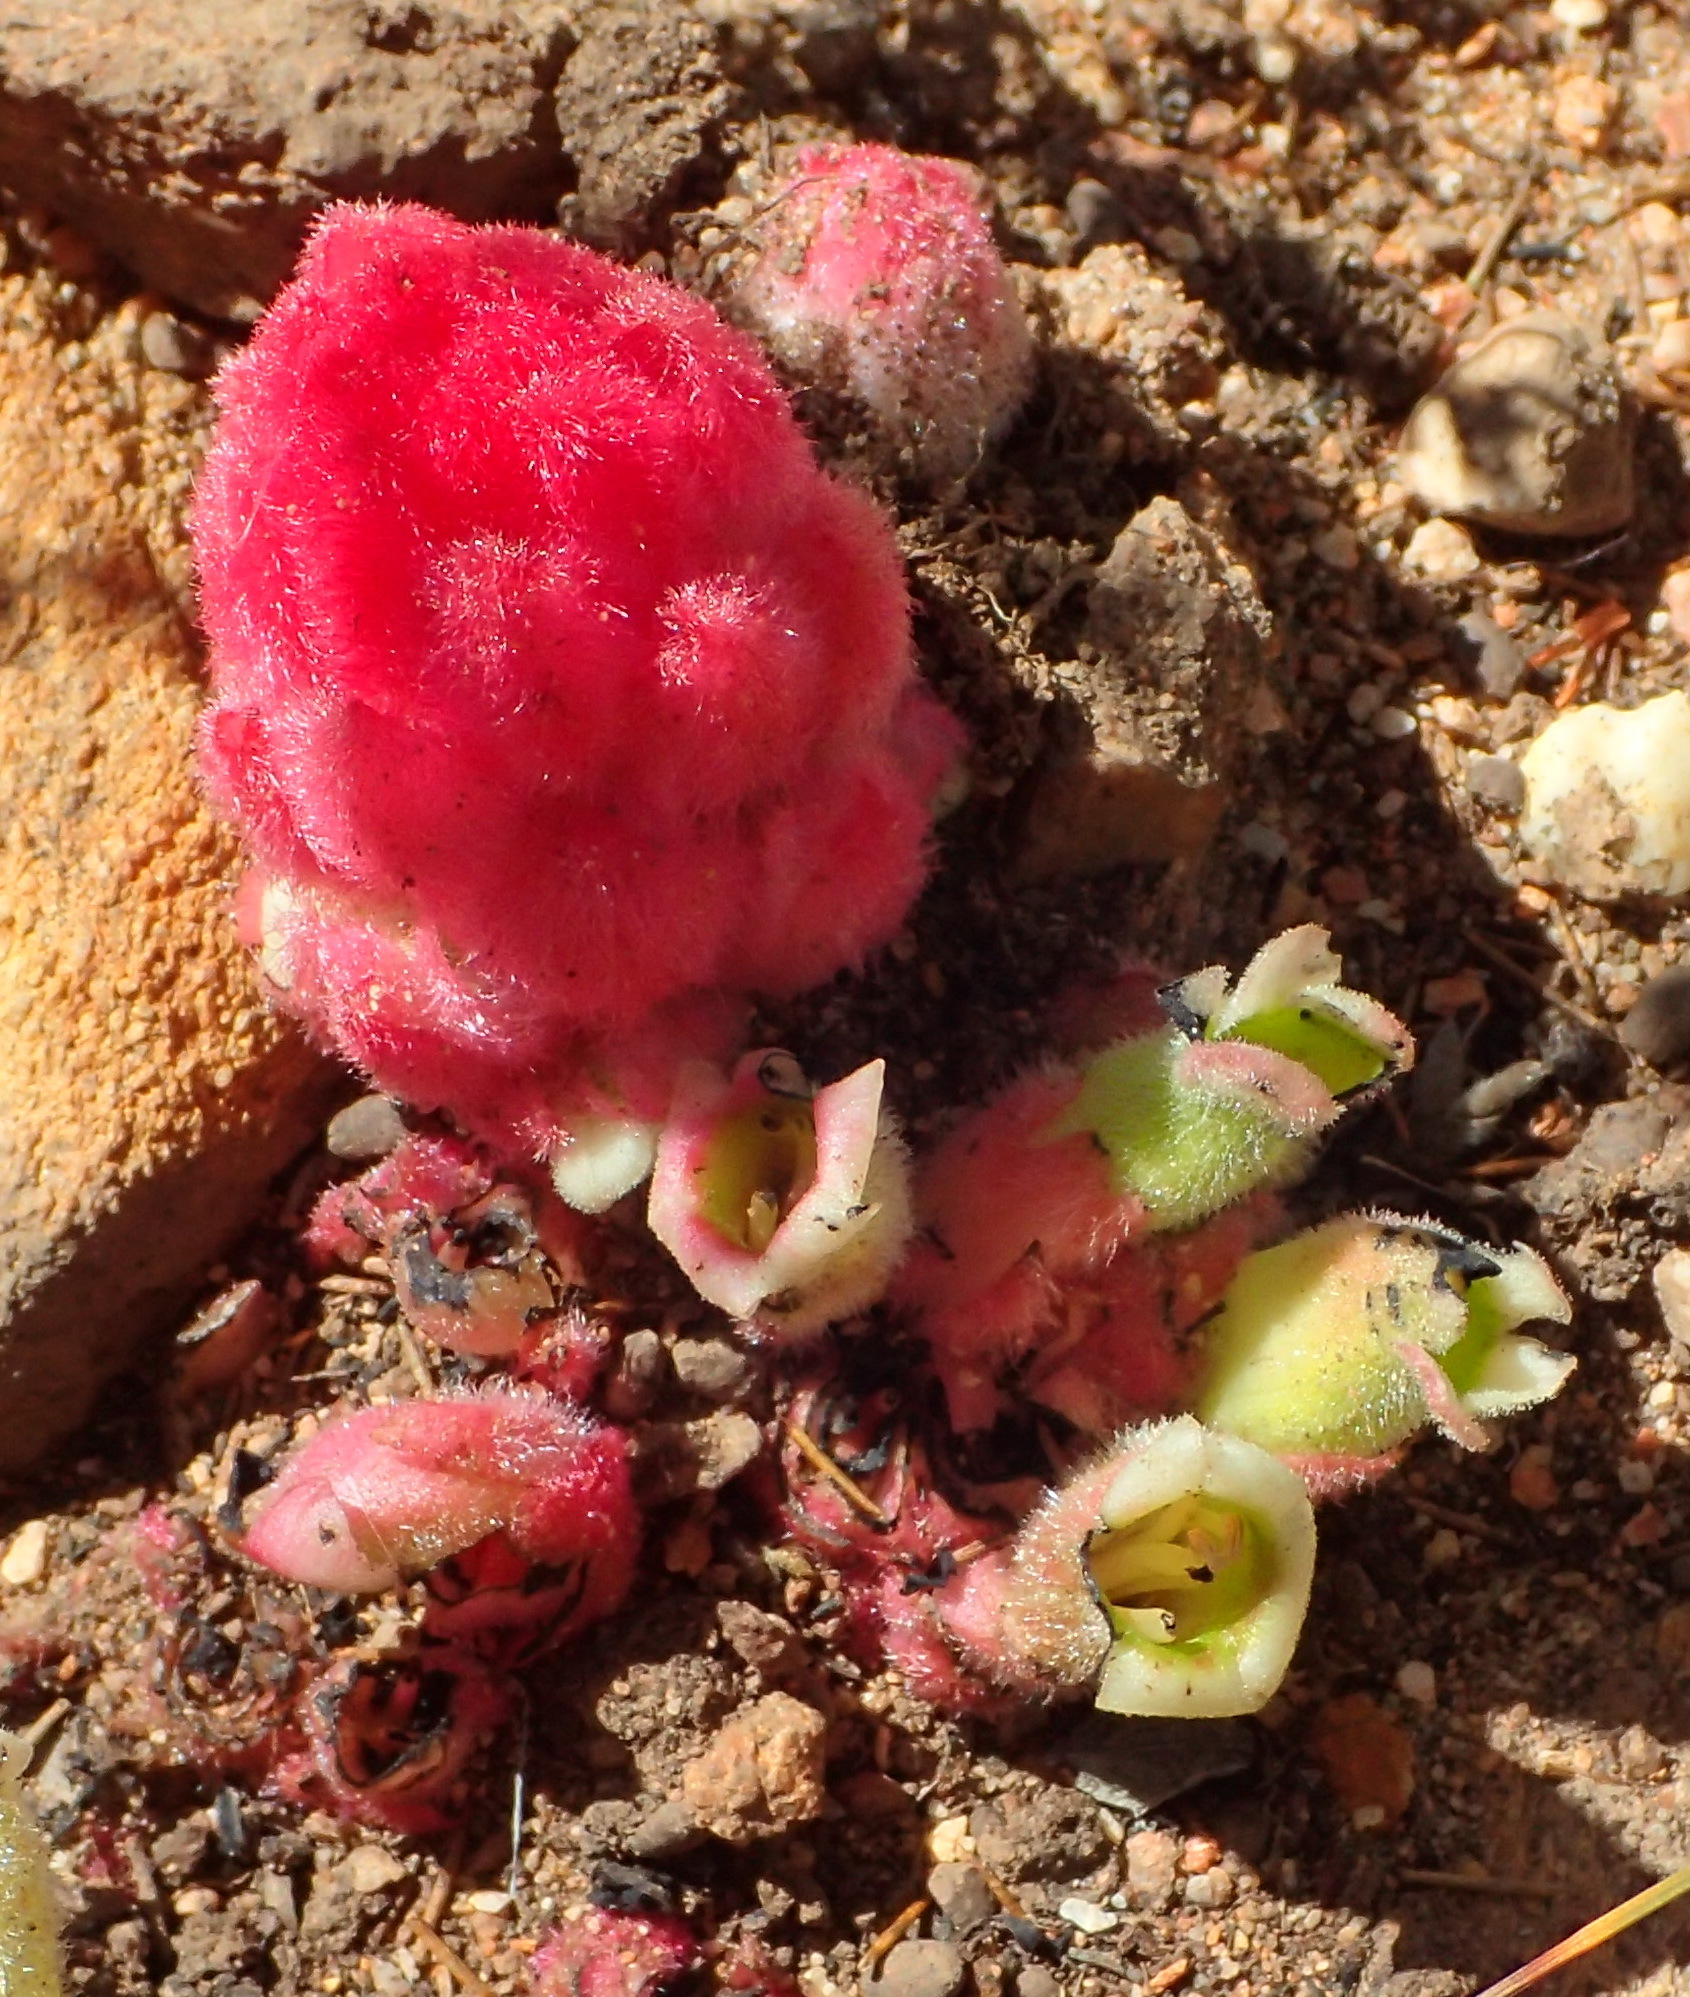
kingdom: Plantae
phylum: Tracheophyta
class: Magnoliopsida
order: Lamiales
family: Orobanchaceae
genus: Harveya
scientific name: Harveya roseoalba
